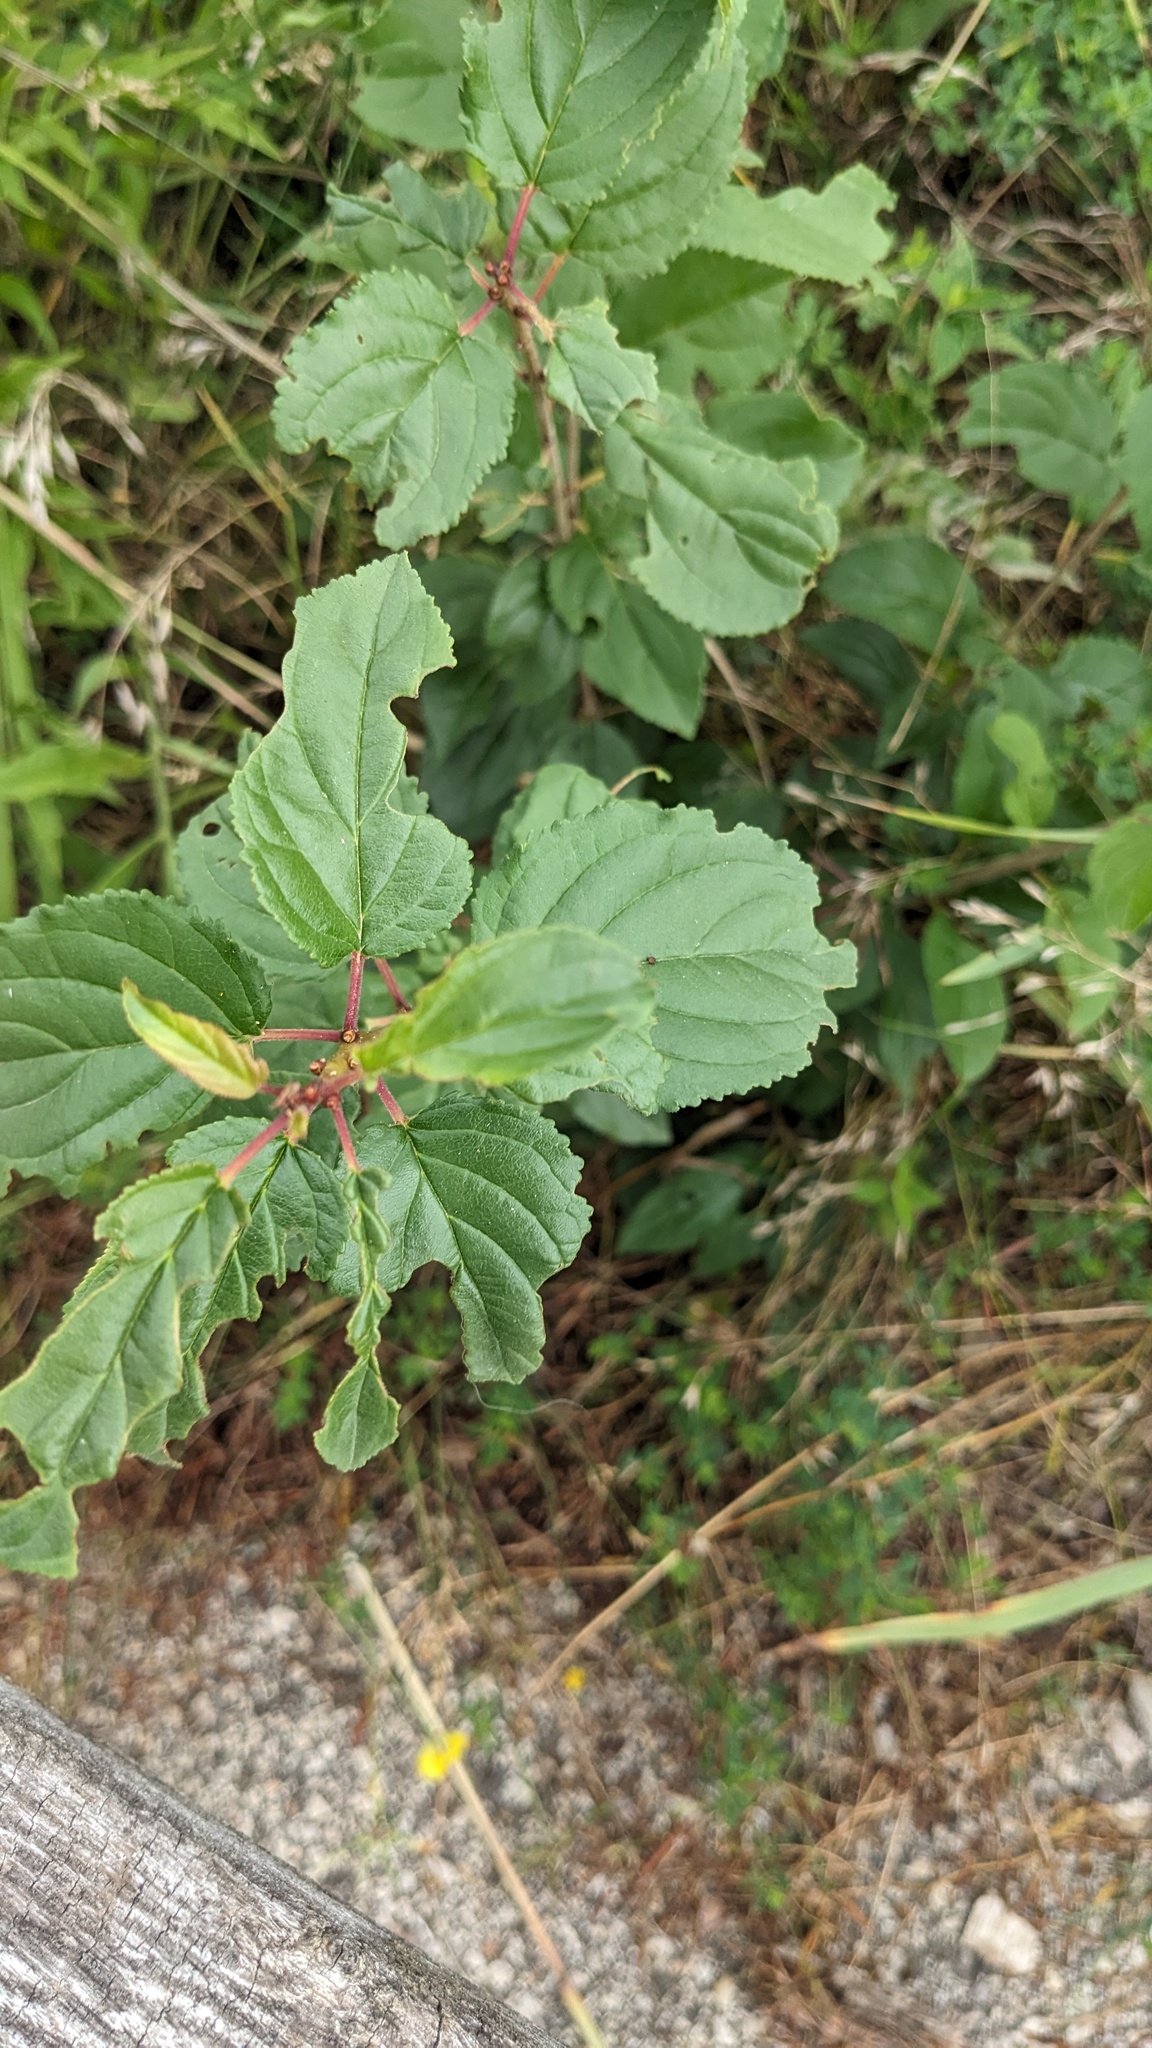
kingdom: Plantae
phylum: Tracheophyta
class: Magnoliopsida
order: Rosales
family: Rhamnaceae
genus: Rhamnus
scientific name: Rhamnus cathartica
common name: Common buckthorn
